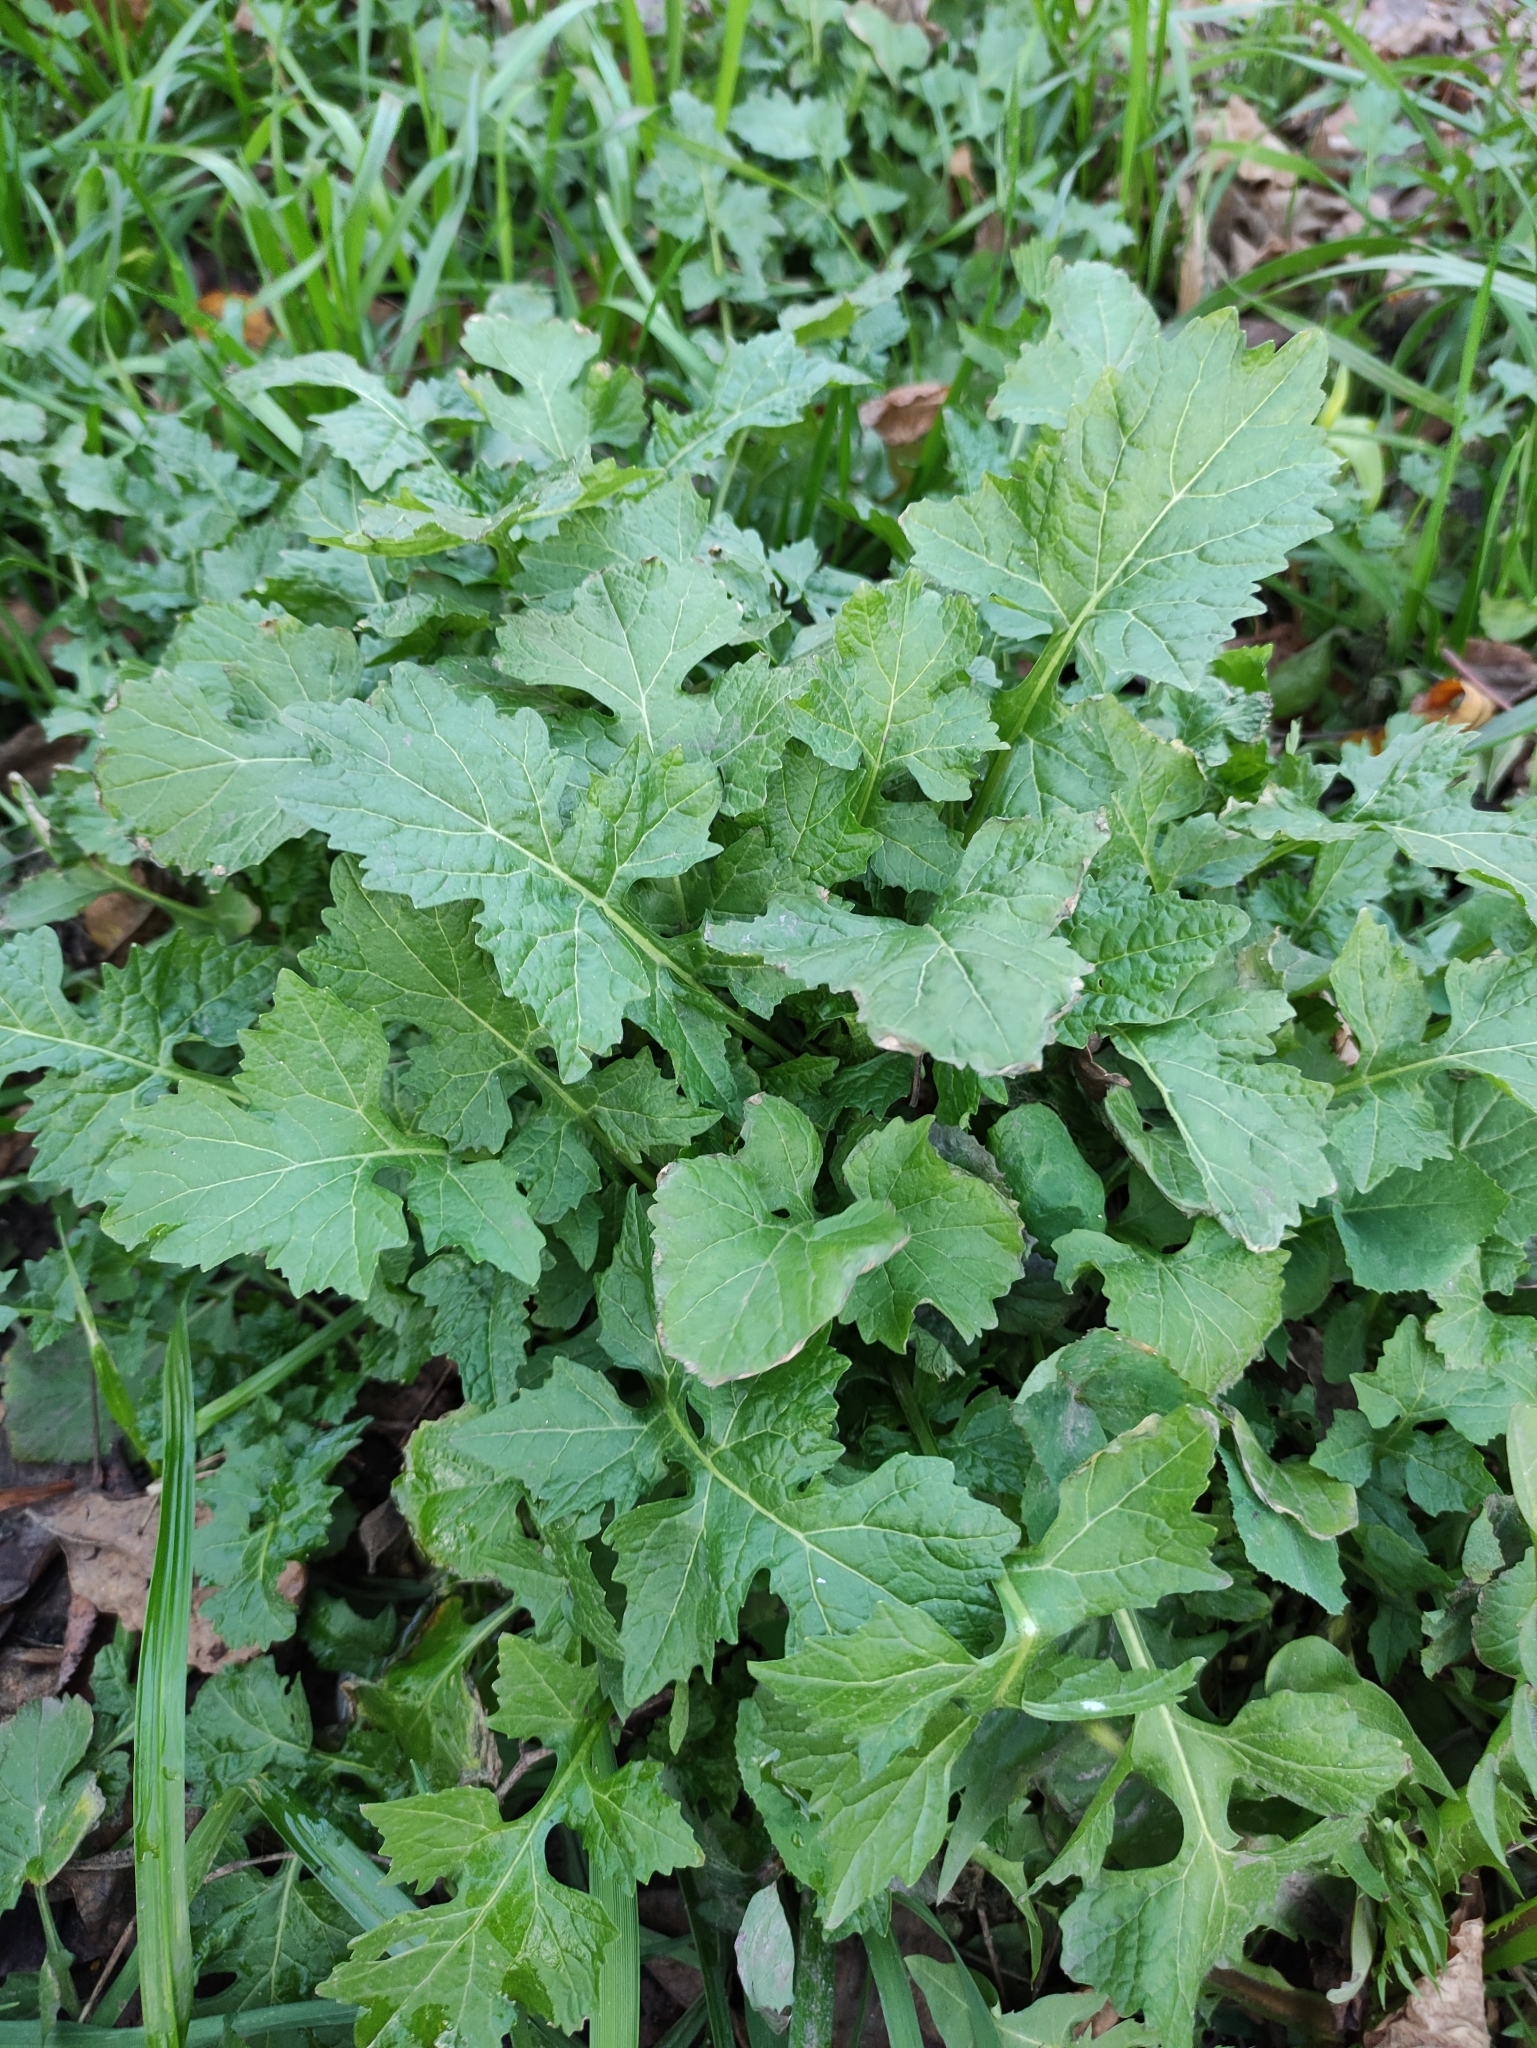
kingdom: Plantae
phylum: Tracheophyta
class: Magnoliopsida
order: Brassicales
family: Brassicaceae
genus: Sisymbrium
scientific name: Sisymbrium officinale
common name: Hedge mustard
